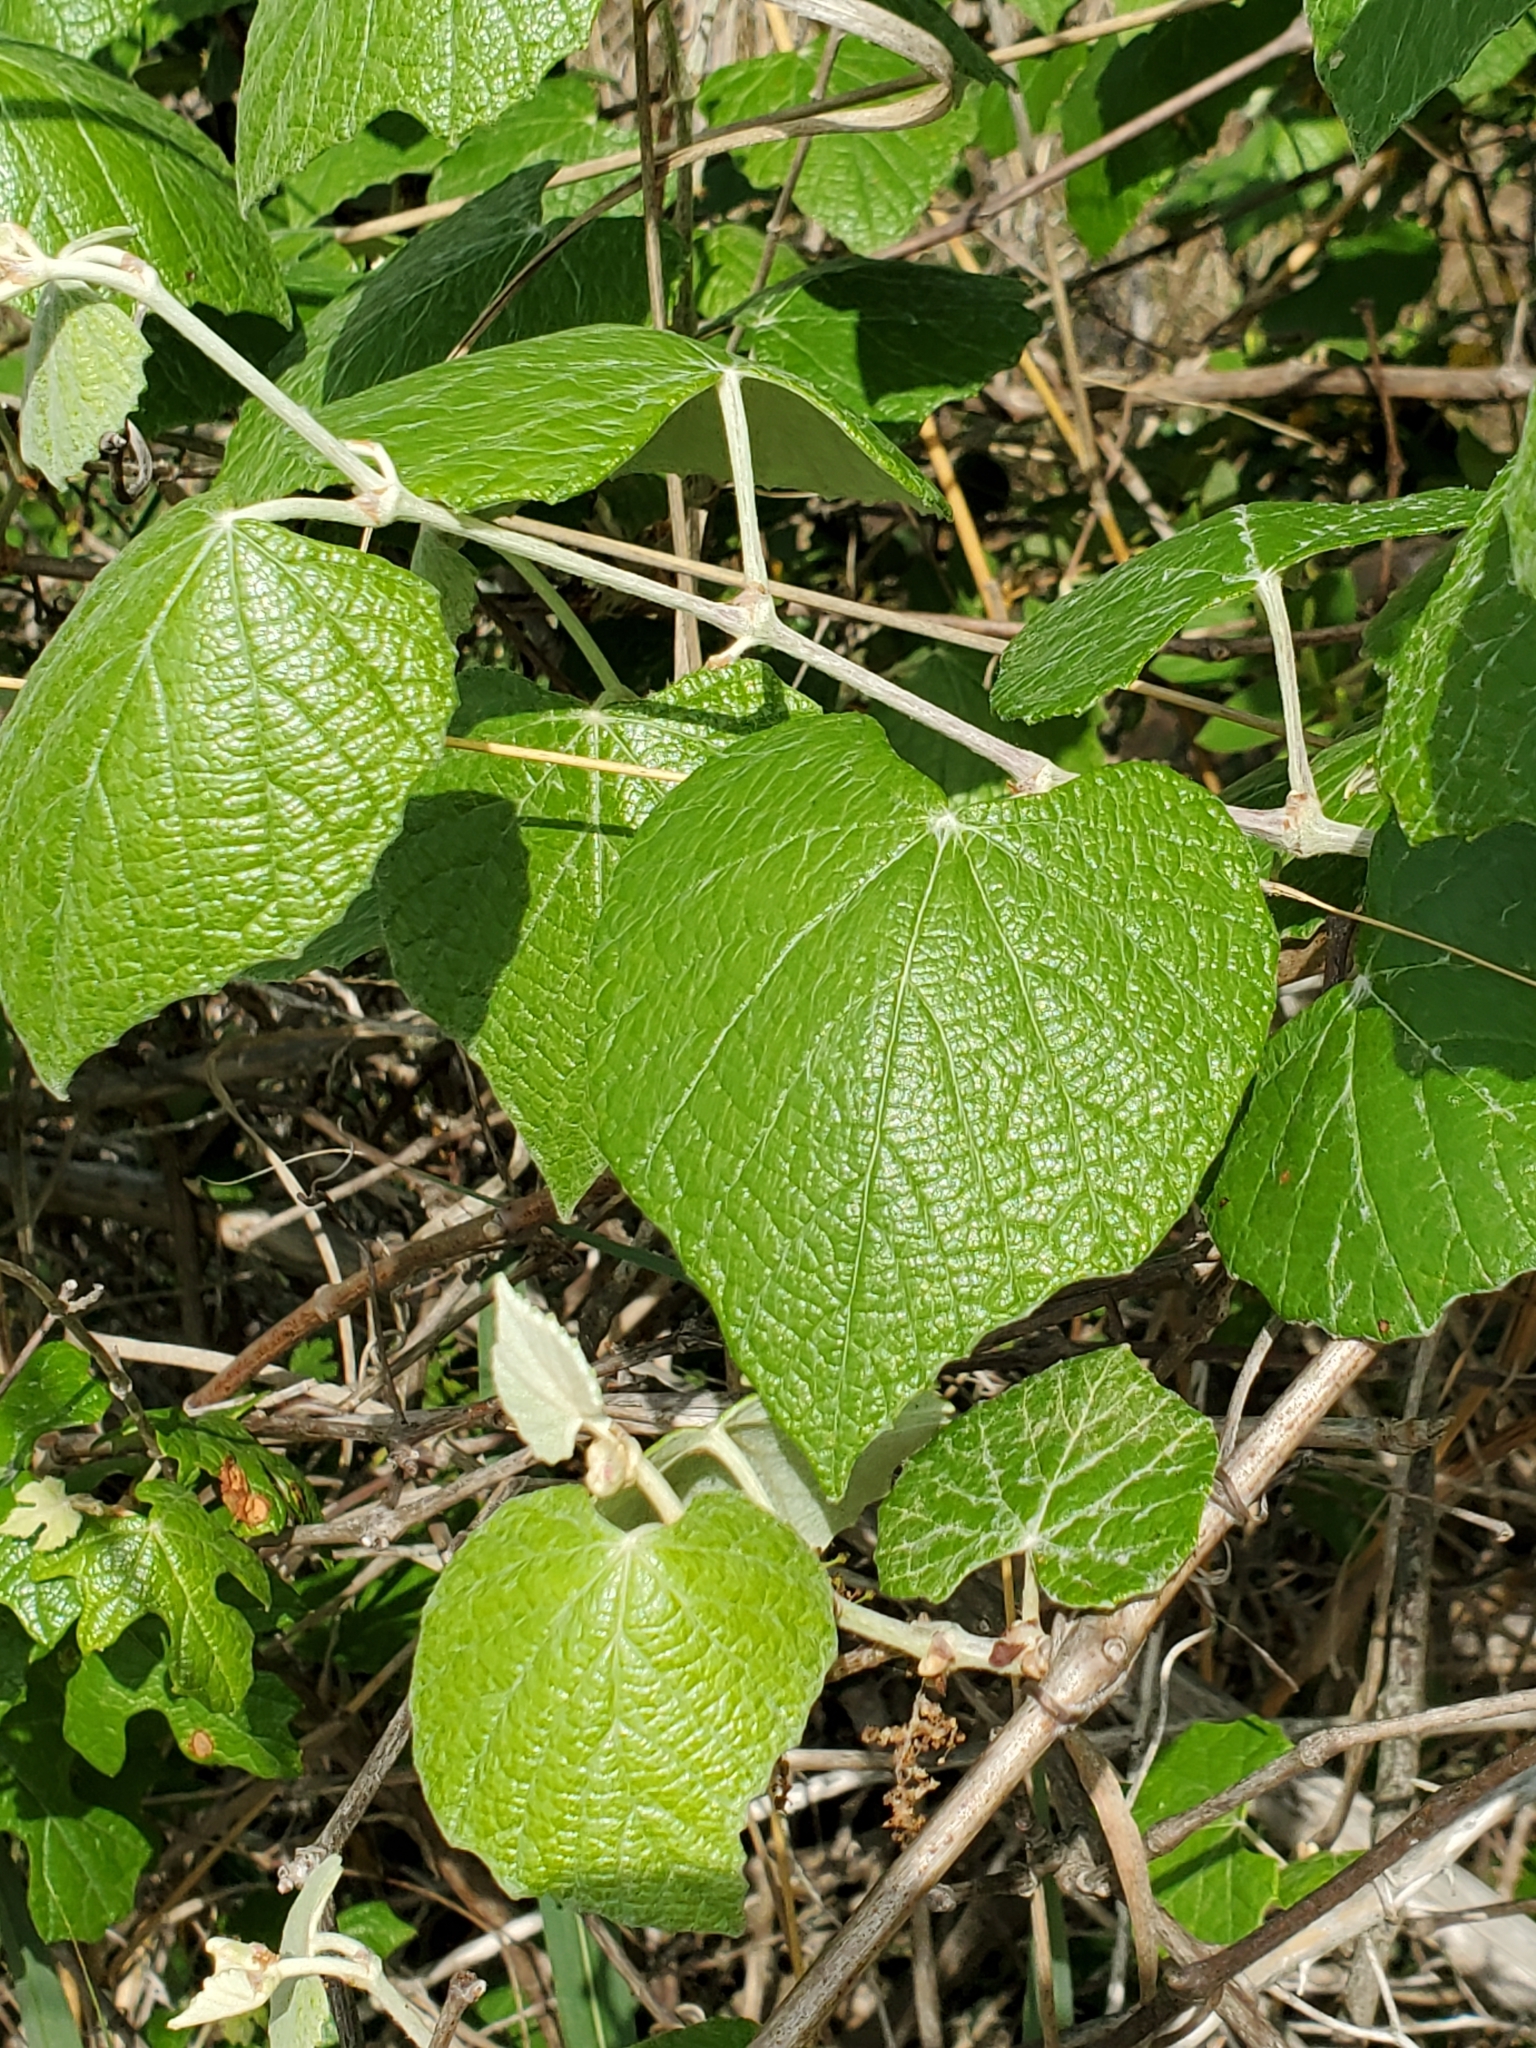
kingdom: Plantae
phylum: Tracheophyta
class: Magnoliopsida
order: Vitales
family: Vitaceae
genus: Vitis
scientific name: Vitis mustangensis
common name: Mustang grape
